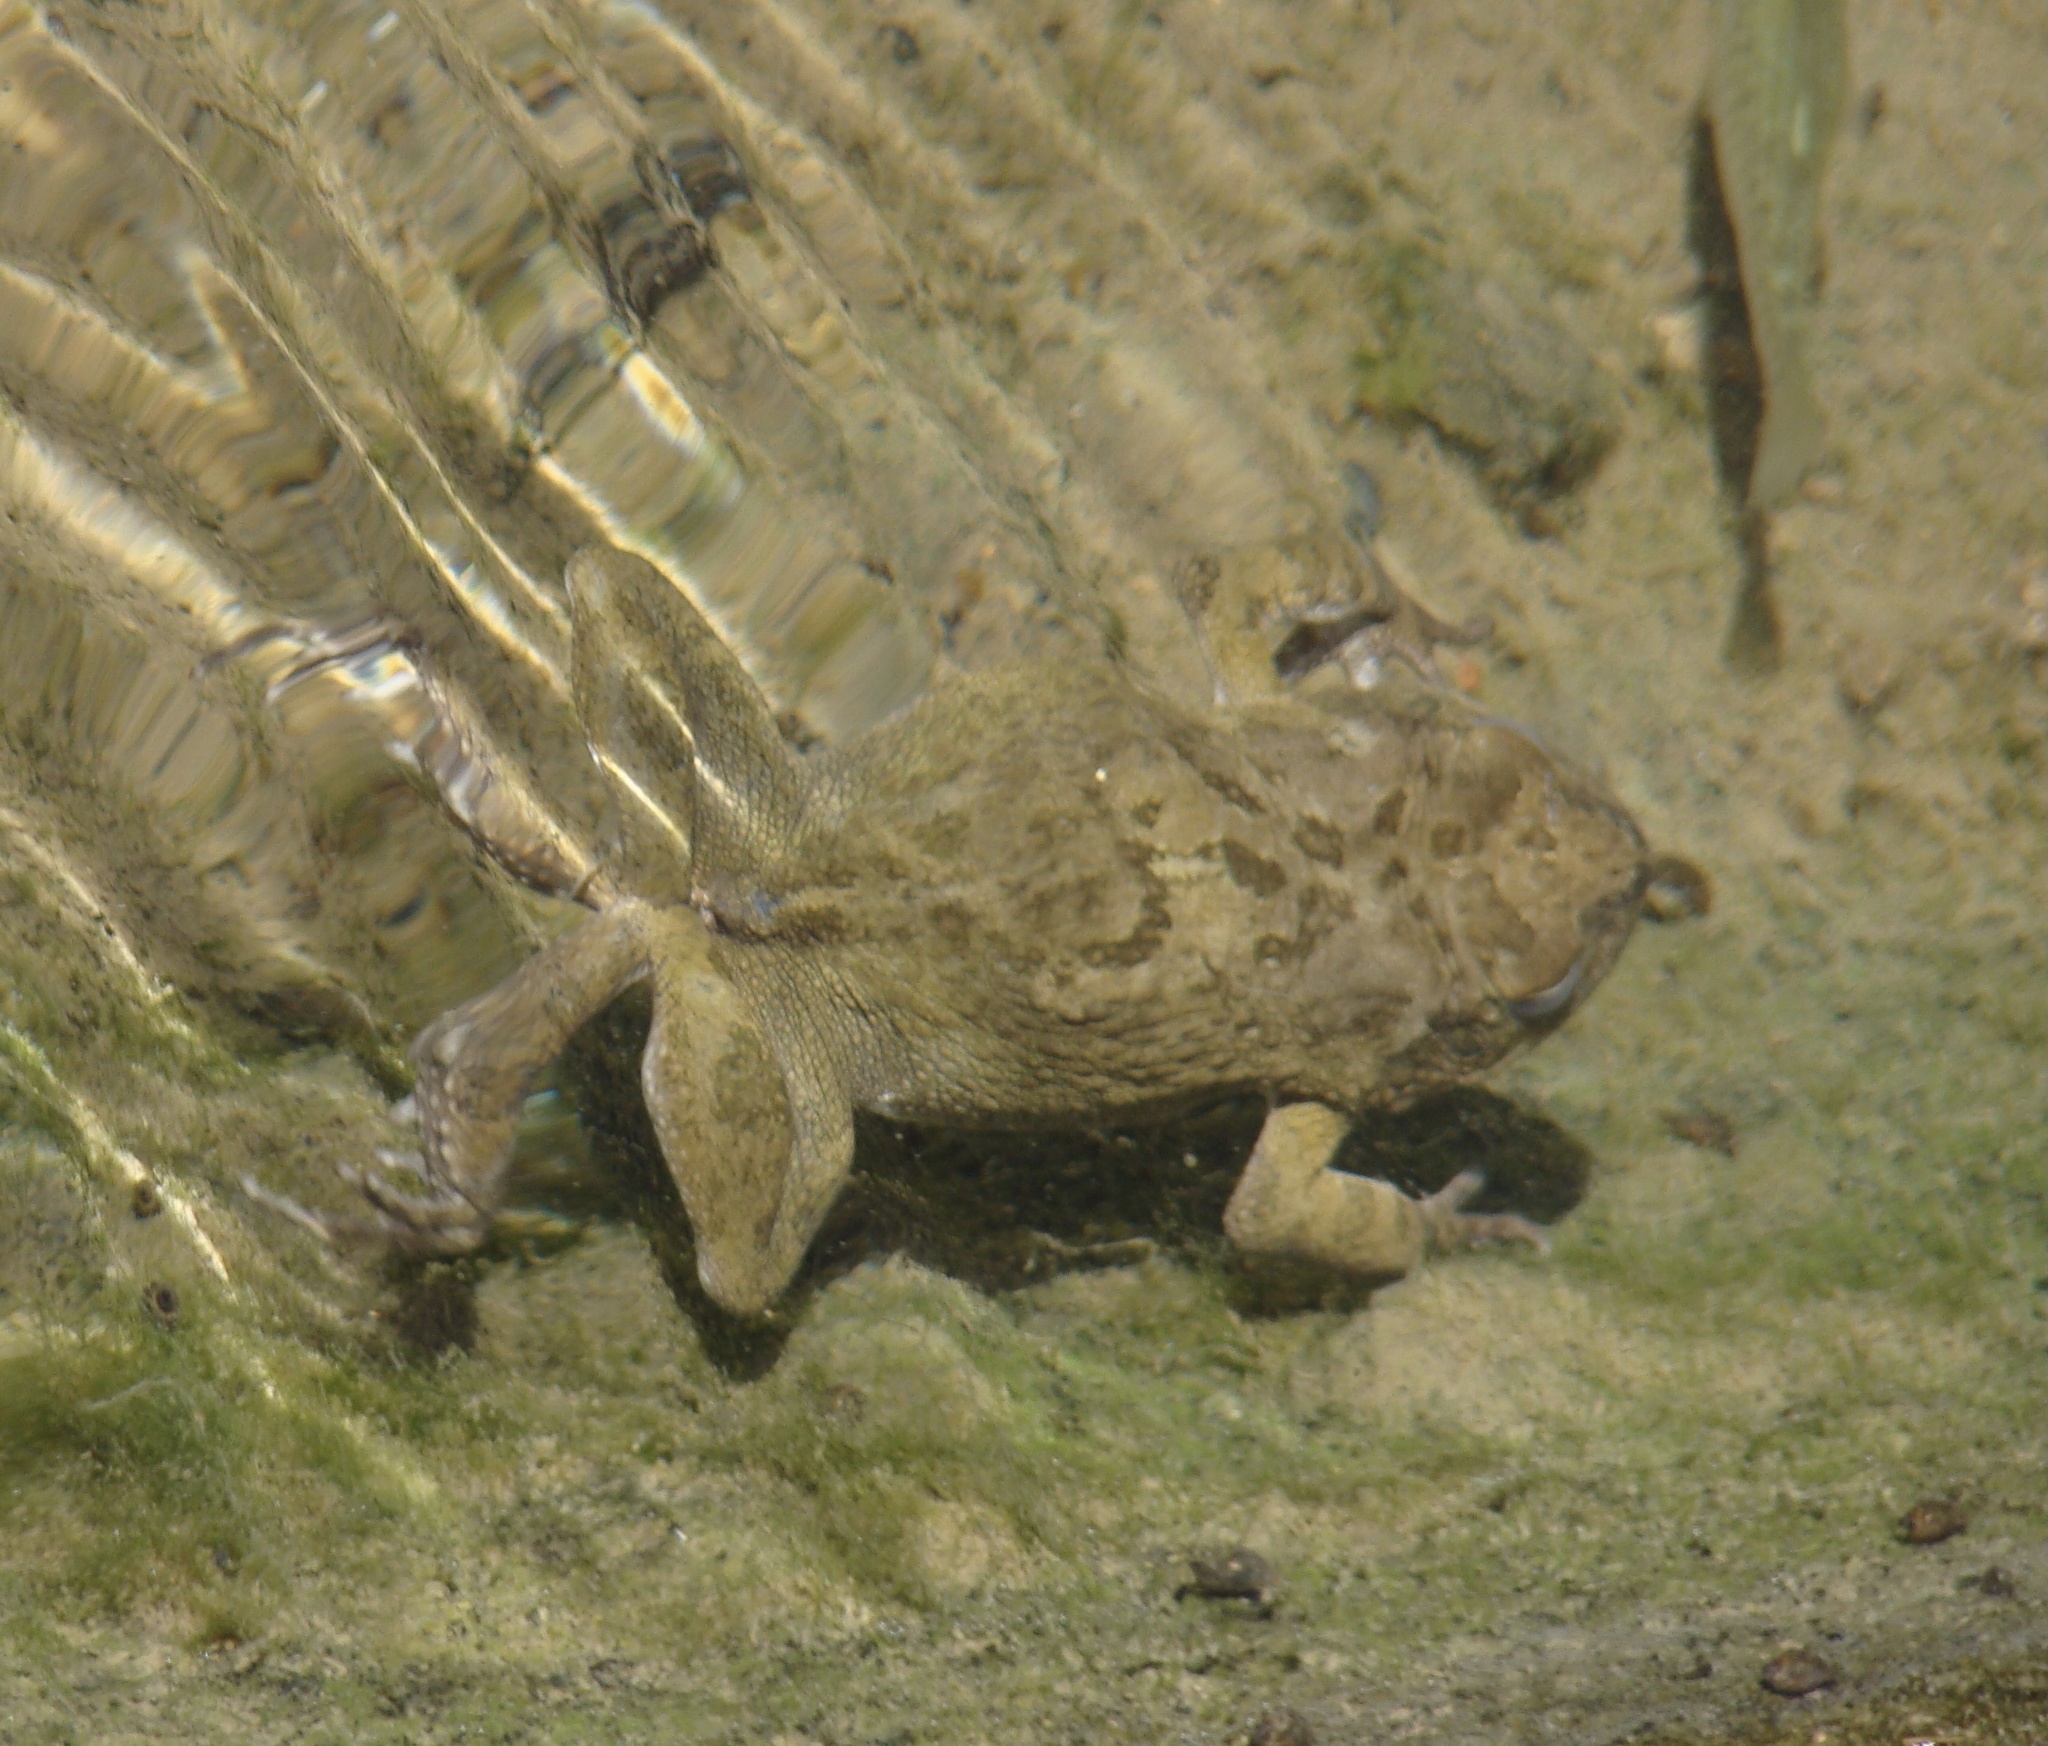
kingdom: Animalia
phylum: Chordata
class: Amphibia
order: Anura
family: Bufonidae
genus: Sclerophrys
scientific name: Sclerophrys arabica
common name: Arabian toad
